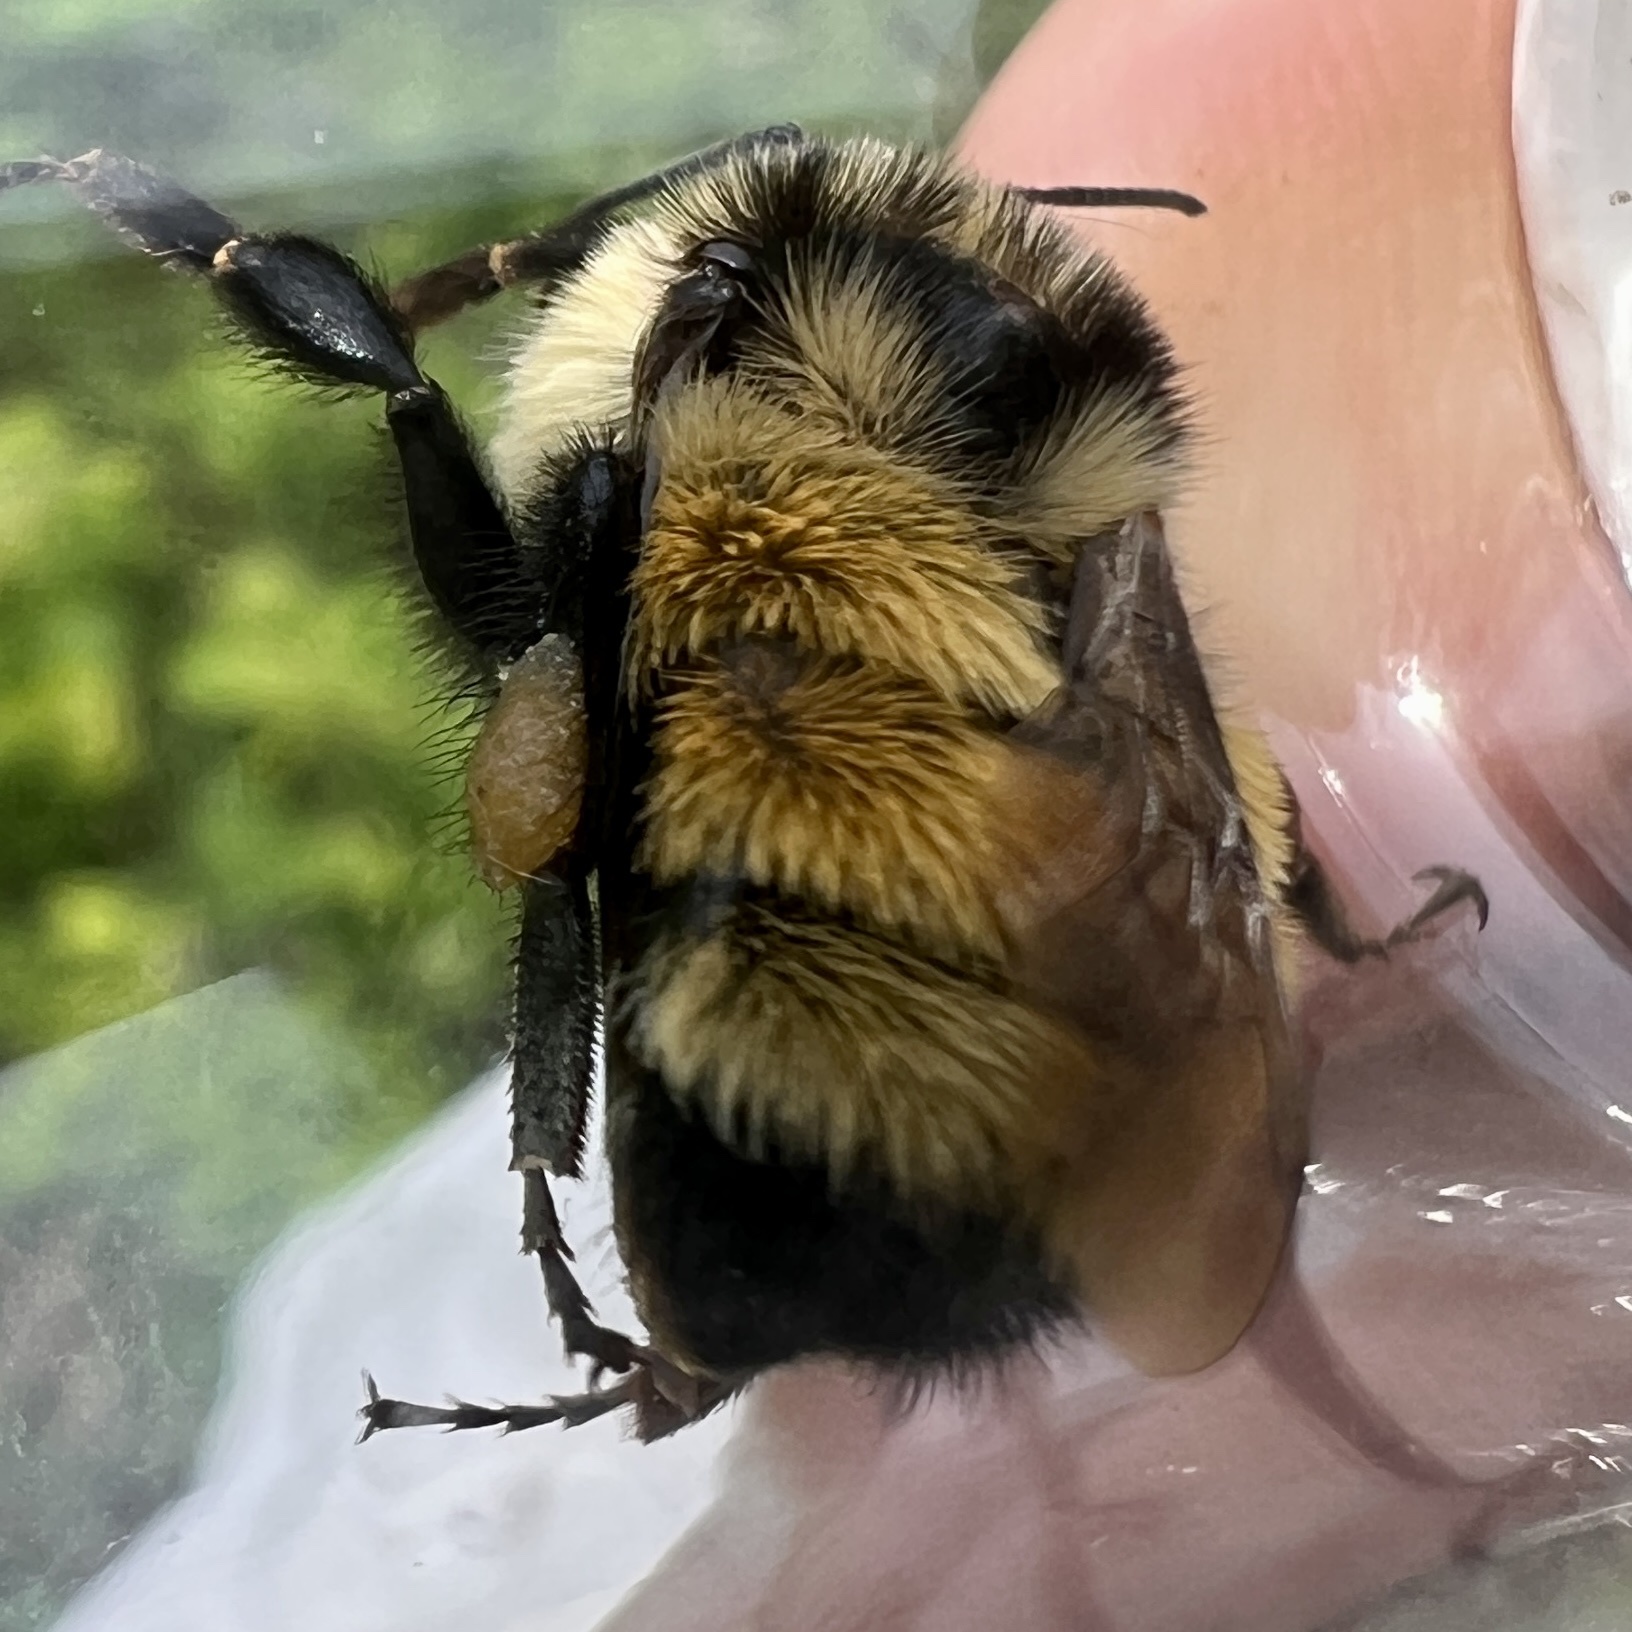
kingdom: Animalia
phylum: Arthropoda
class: Insecta
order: Hymenoptera
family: Apidae
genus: Bombus
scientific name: Bombus ternarius
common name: Tri-colored bumble bee
